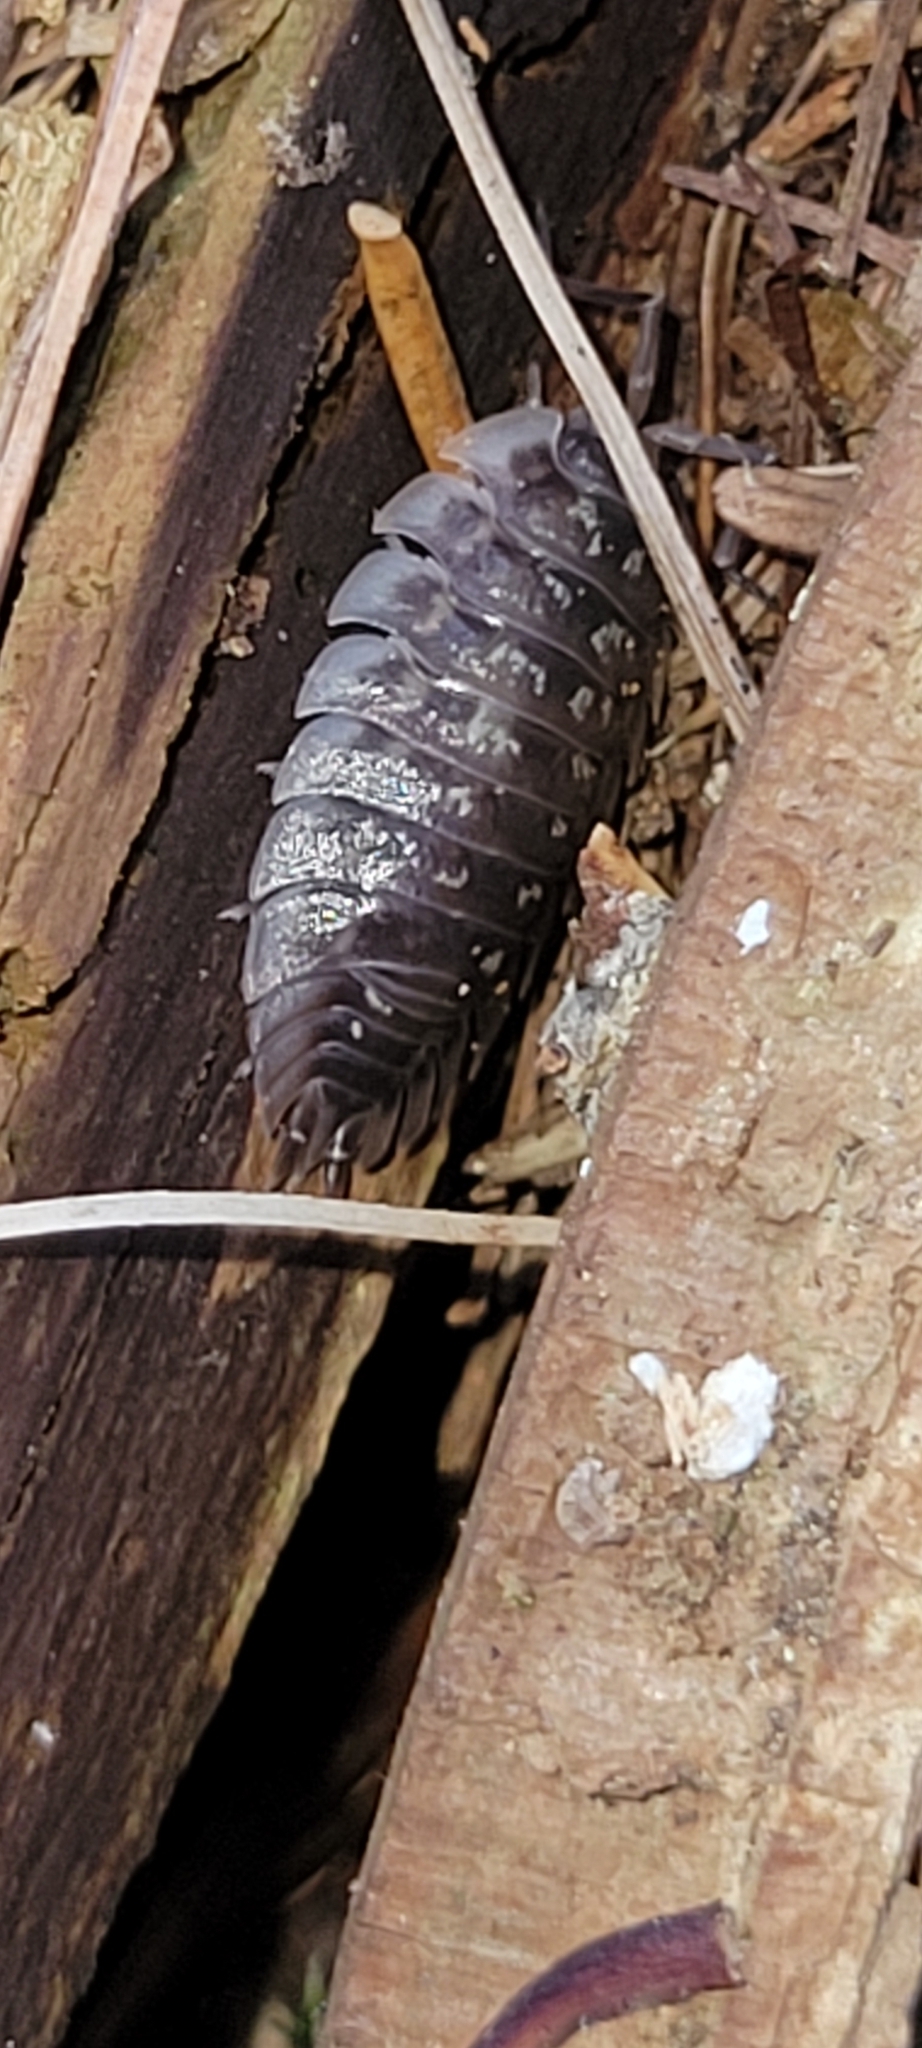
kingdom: Animalia
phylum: Arthropoda
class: Malacostraca
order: Isopoda
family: Oniscidae
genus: Oniscus
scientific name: Oniscus asellus
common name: Common shiny woodlouse
